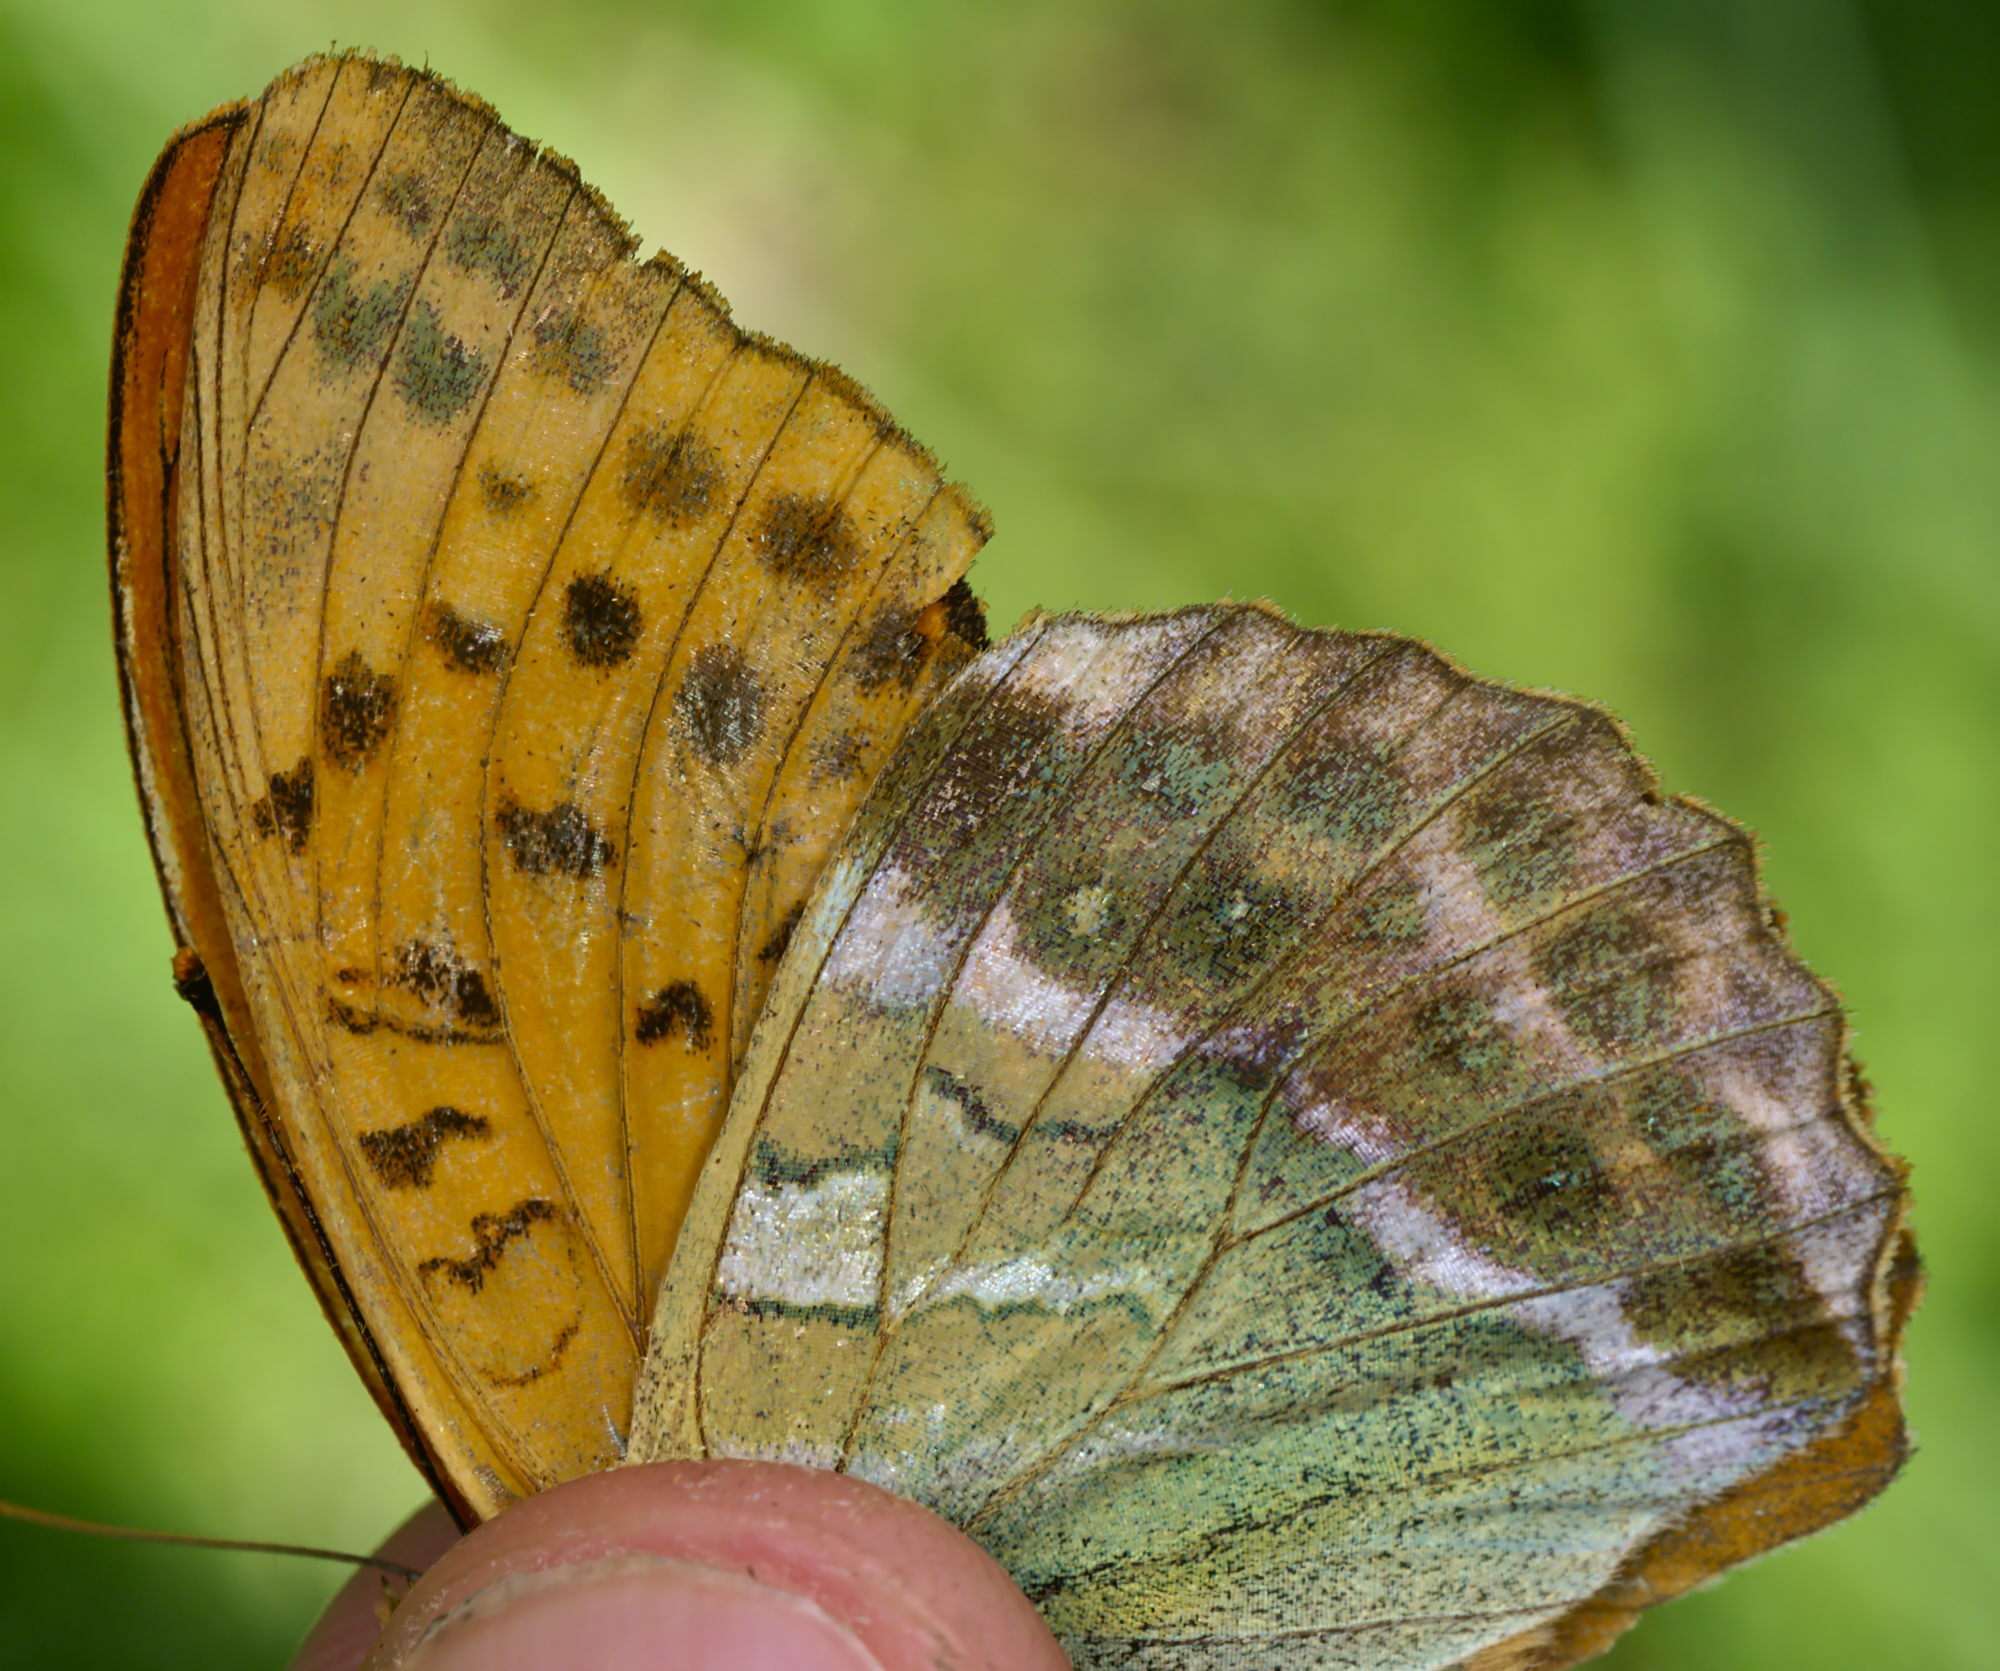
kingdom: Animalia
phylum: Arthropoda
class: Insecta
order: Lepidoptera
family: Nymphalidae
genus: Argynnis
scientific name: Argynnis paphia
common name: Silver-washed fritillary
